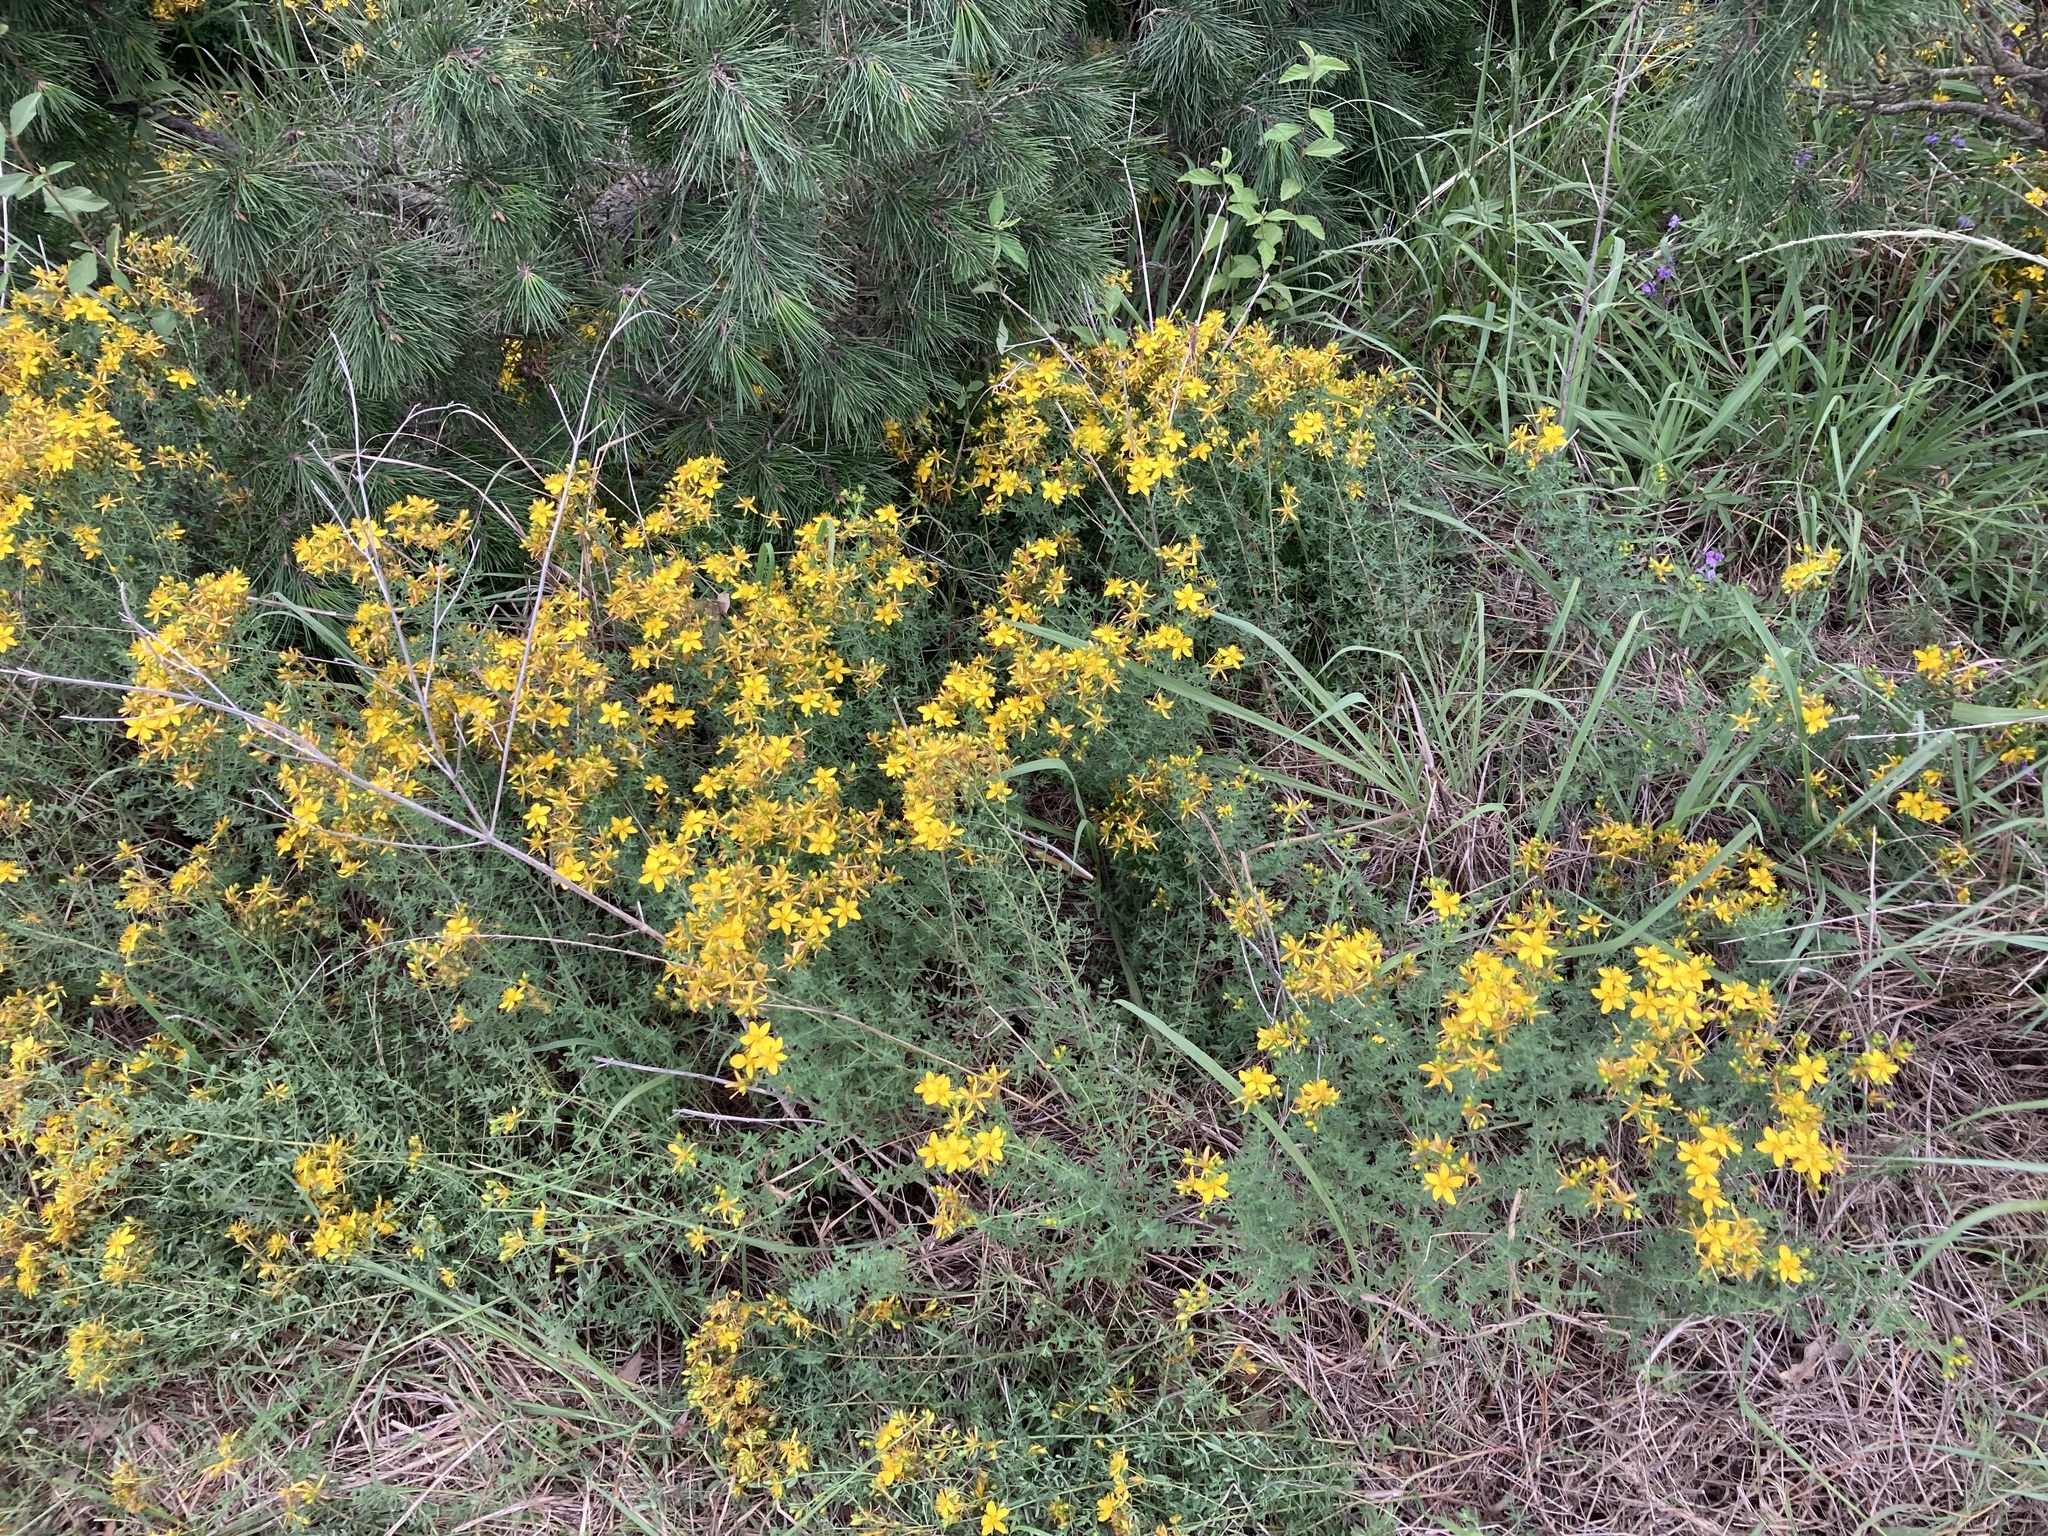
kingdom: Plantae
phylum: Tracheophyta
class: Magnoliopsida
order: Malpighiales
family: Hypericaceae
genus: Hypericum
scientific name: Hypericum perforatum
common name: Common st. johnswort
